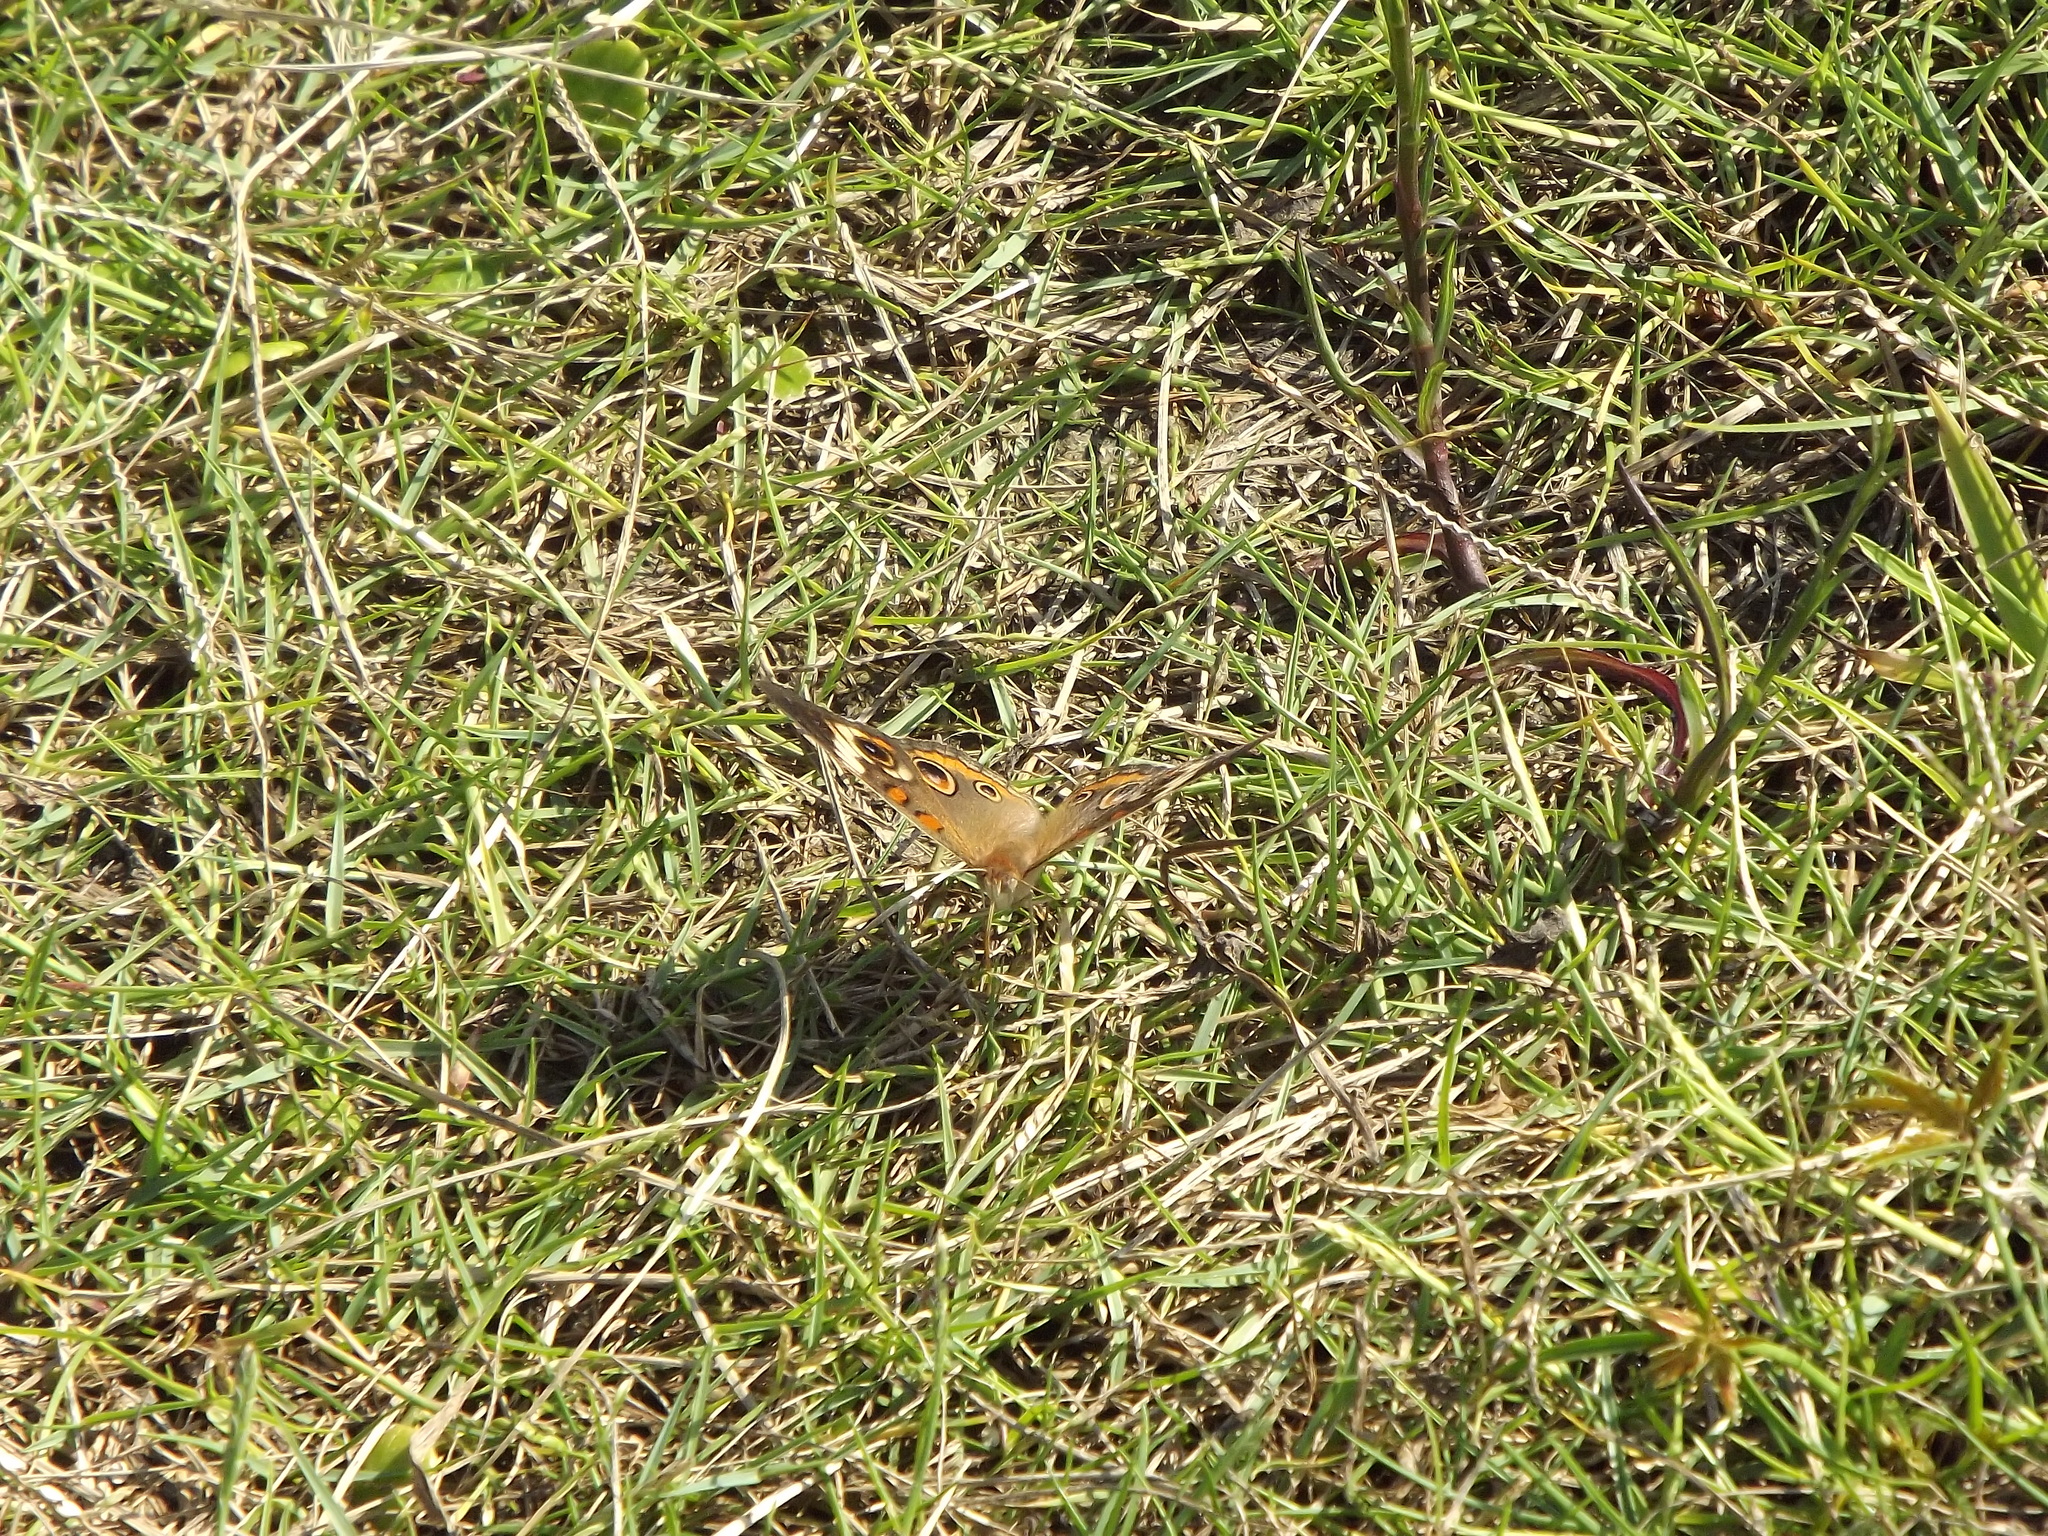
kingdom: Animalia
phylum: Arthropoda
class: Insecta
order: Lepidoptera
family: Nymphalidae
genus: Junonia
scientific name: Junonia coenia
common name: Common buckeye
